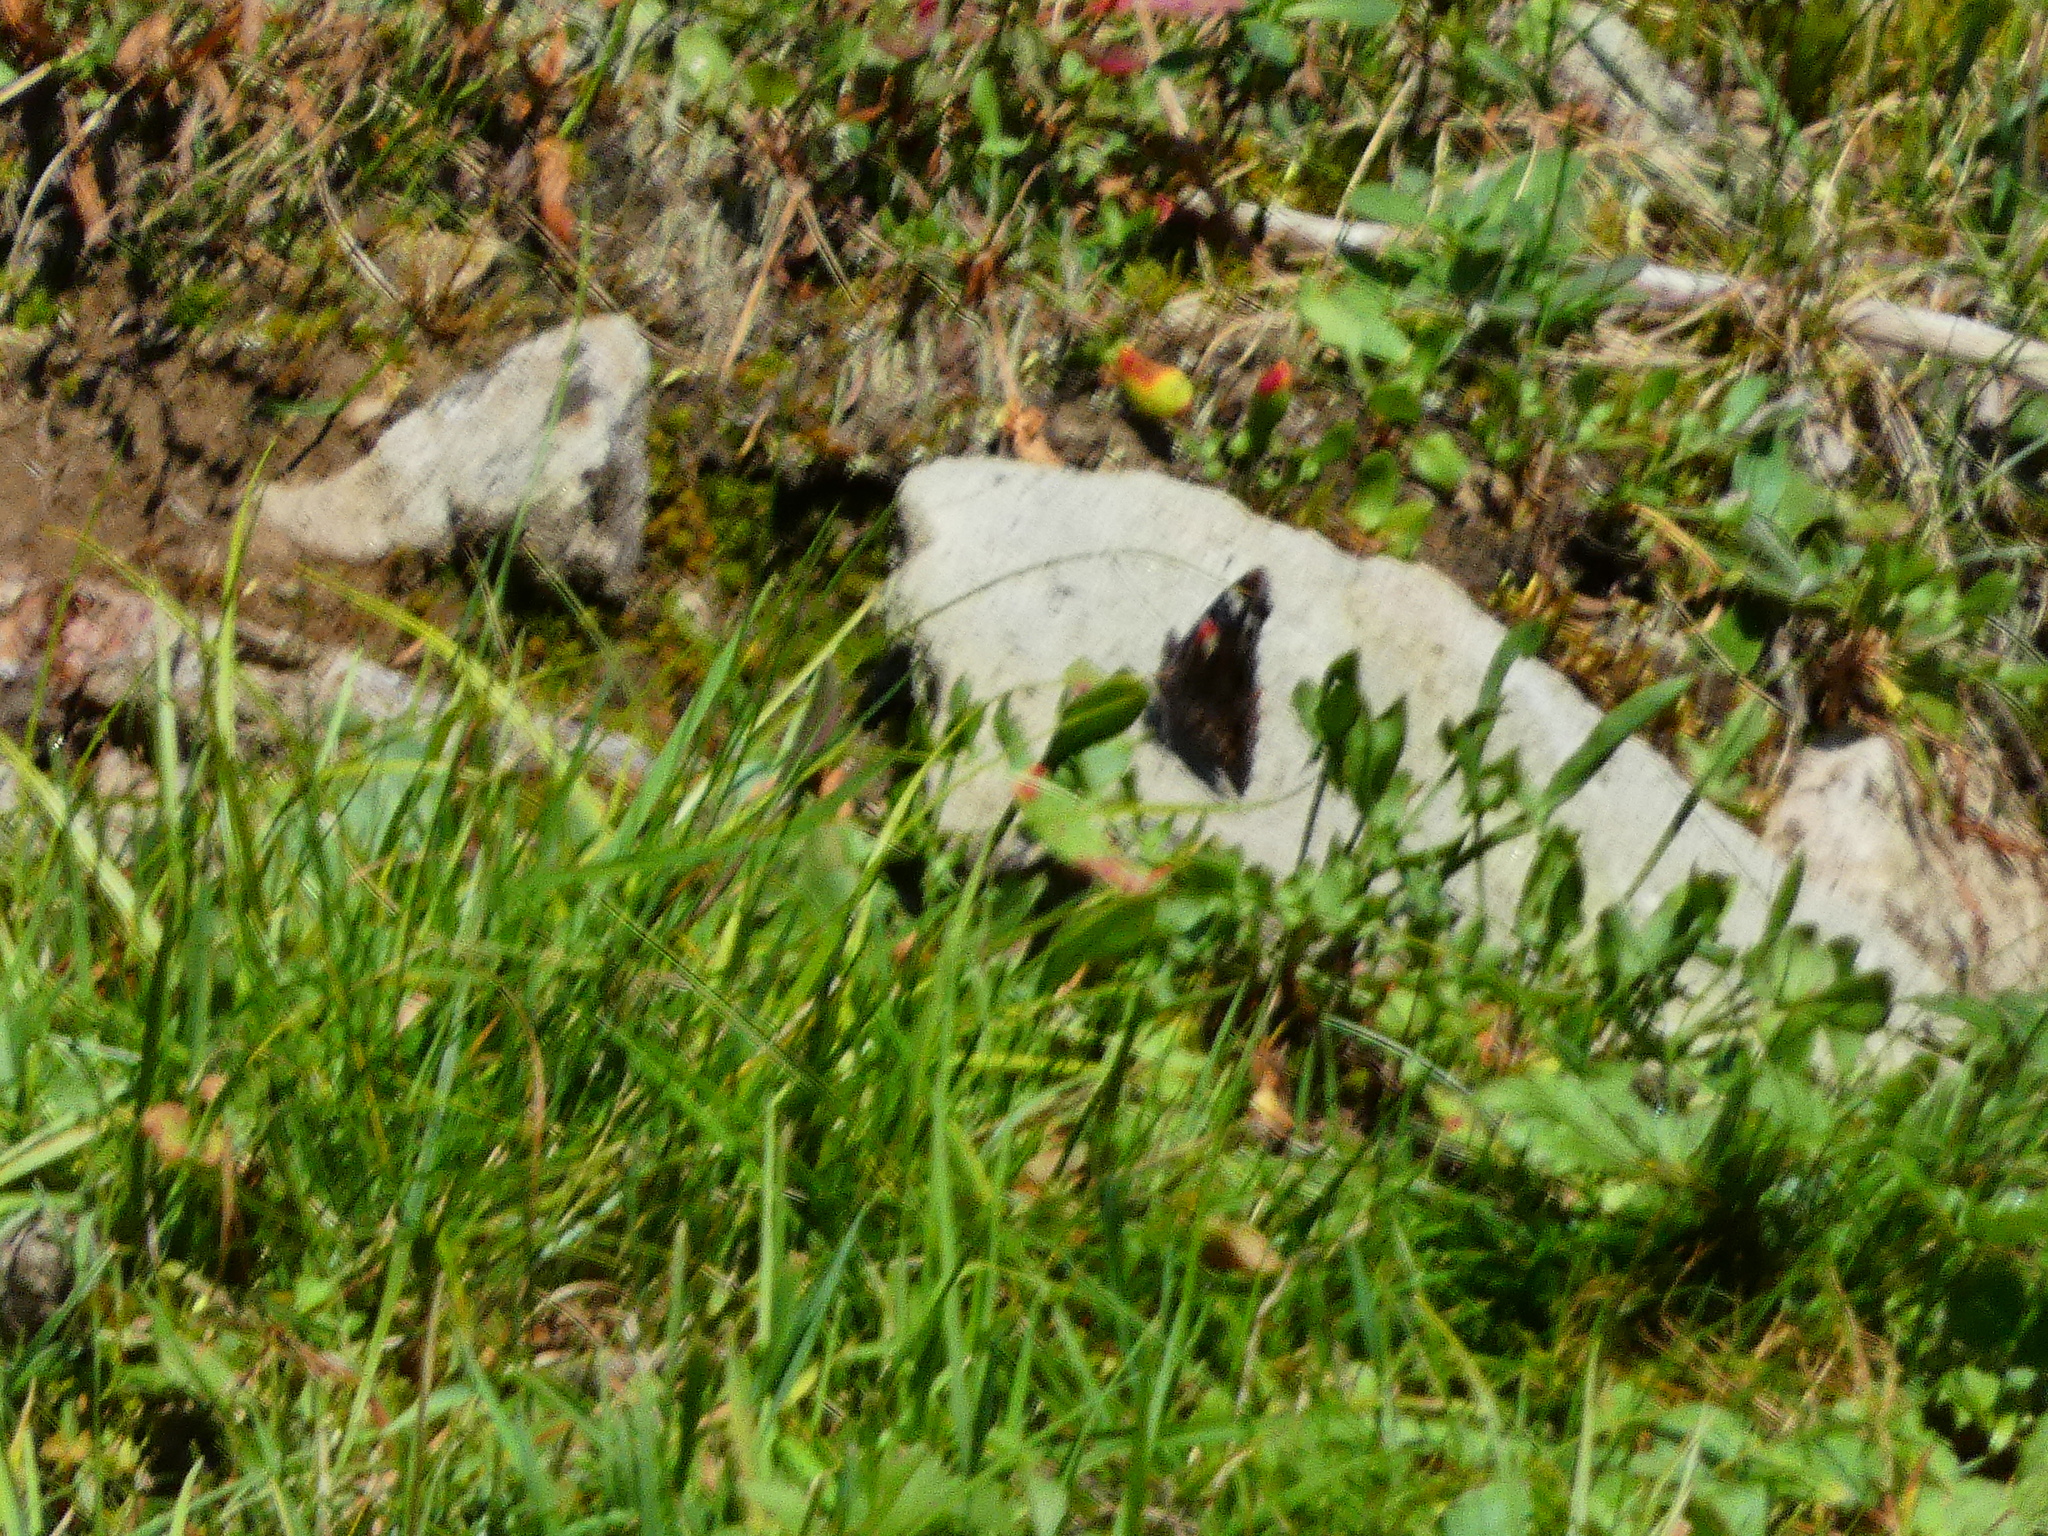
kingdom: Animalia
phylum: Arthropoda
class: Insecta
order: Lepidoptera
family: Nymphalidae
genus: Vanessa
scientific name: Vanessa atalanta
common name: Red admiral
